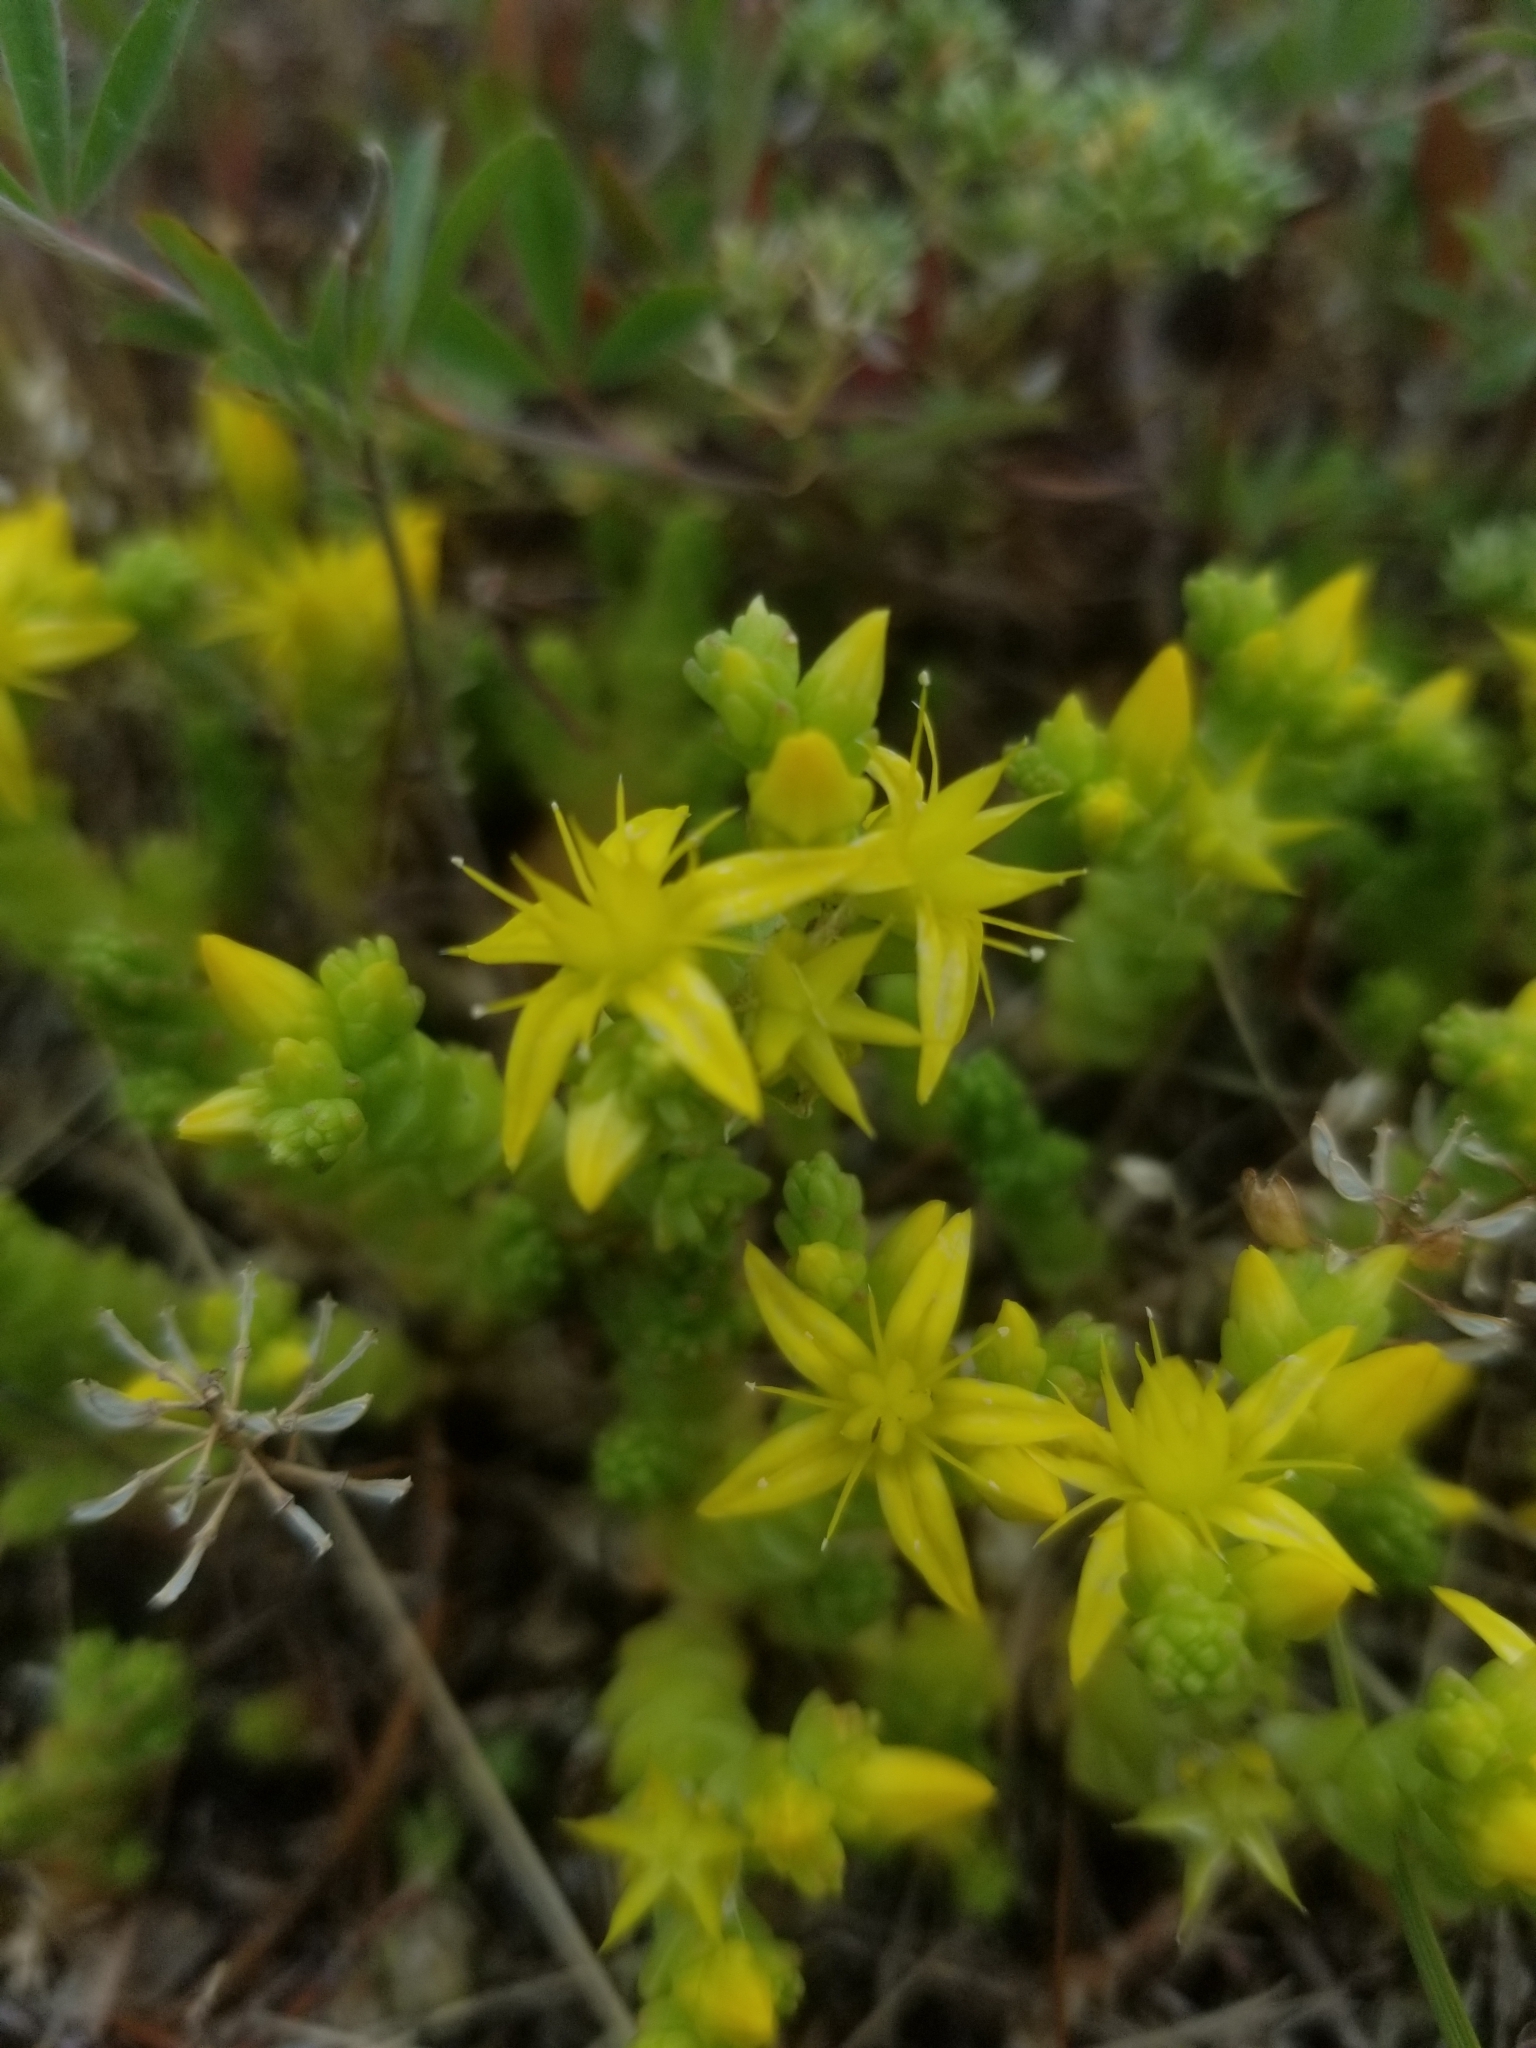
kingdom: Plantae
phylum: Tracheophyta
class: Magnoliopsida
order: Saxifragales
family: Crassulaceae
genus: Sedum
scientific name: Sedum acre
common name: Biting stonecrop
